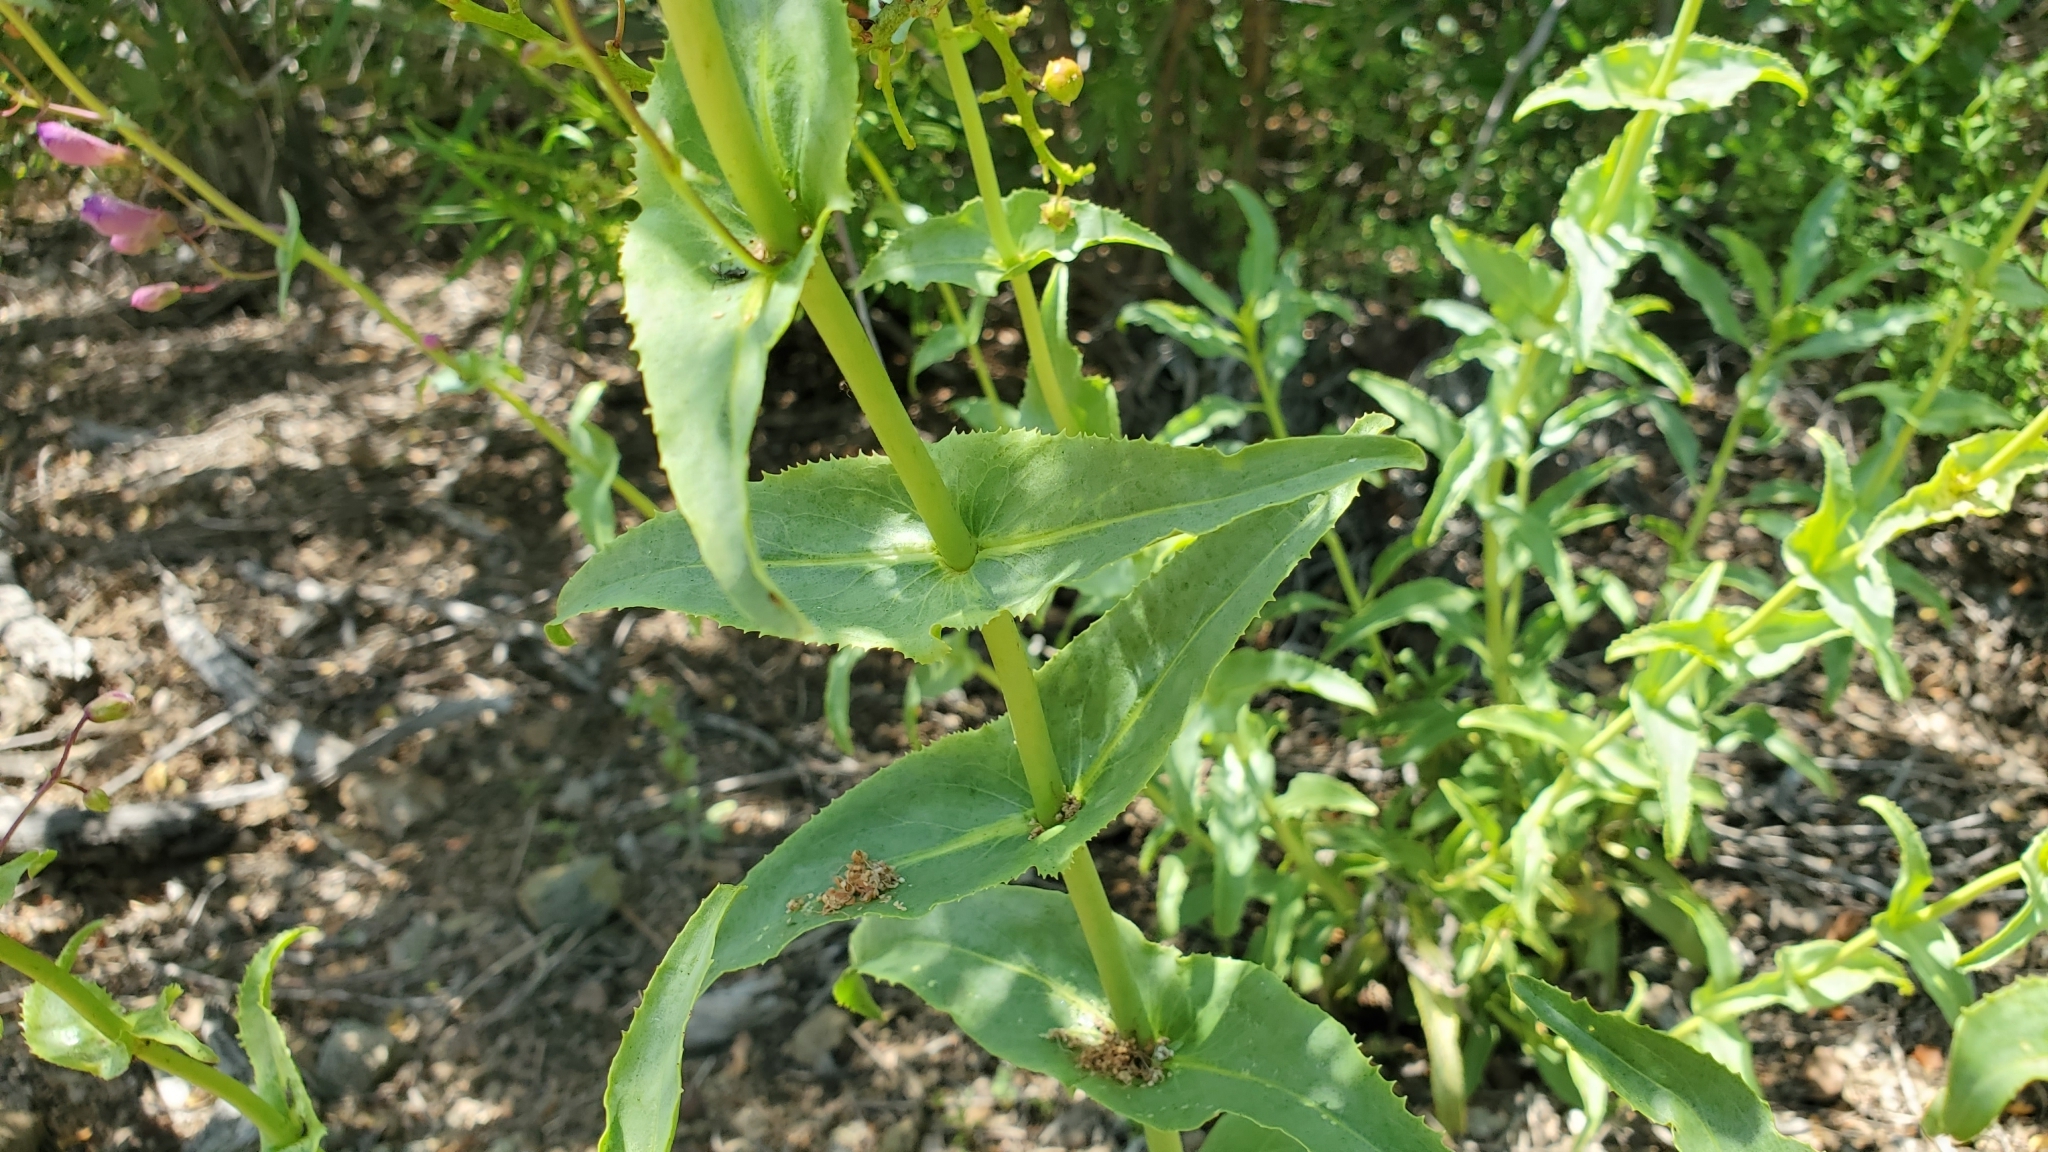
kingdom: Plantae
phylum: Tracheophyta
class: Magnoliopsida
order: Lamiales
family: Plantaginaceae
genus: Penstemon
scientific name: Penstemon spectabilis
